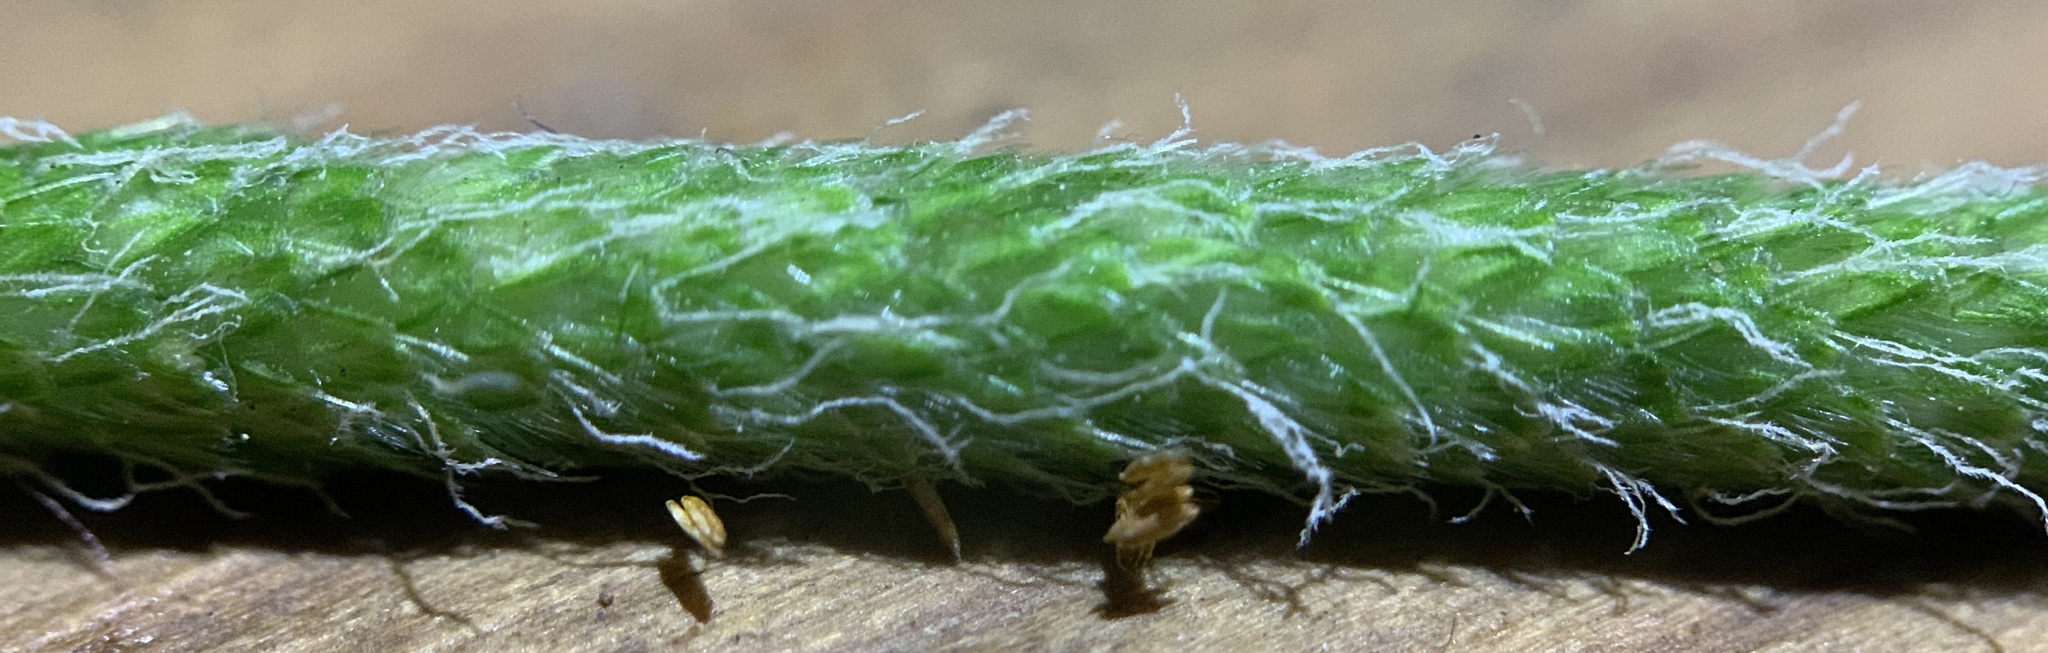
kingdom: Plantae
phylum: Tracheophyta
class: Liliopsida
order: Poales
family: Poaceae
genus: Phleum
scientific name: Phleum pratense
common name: Timothy grass
